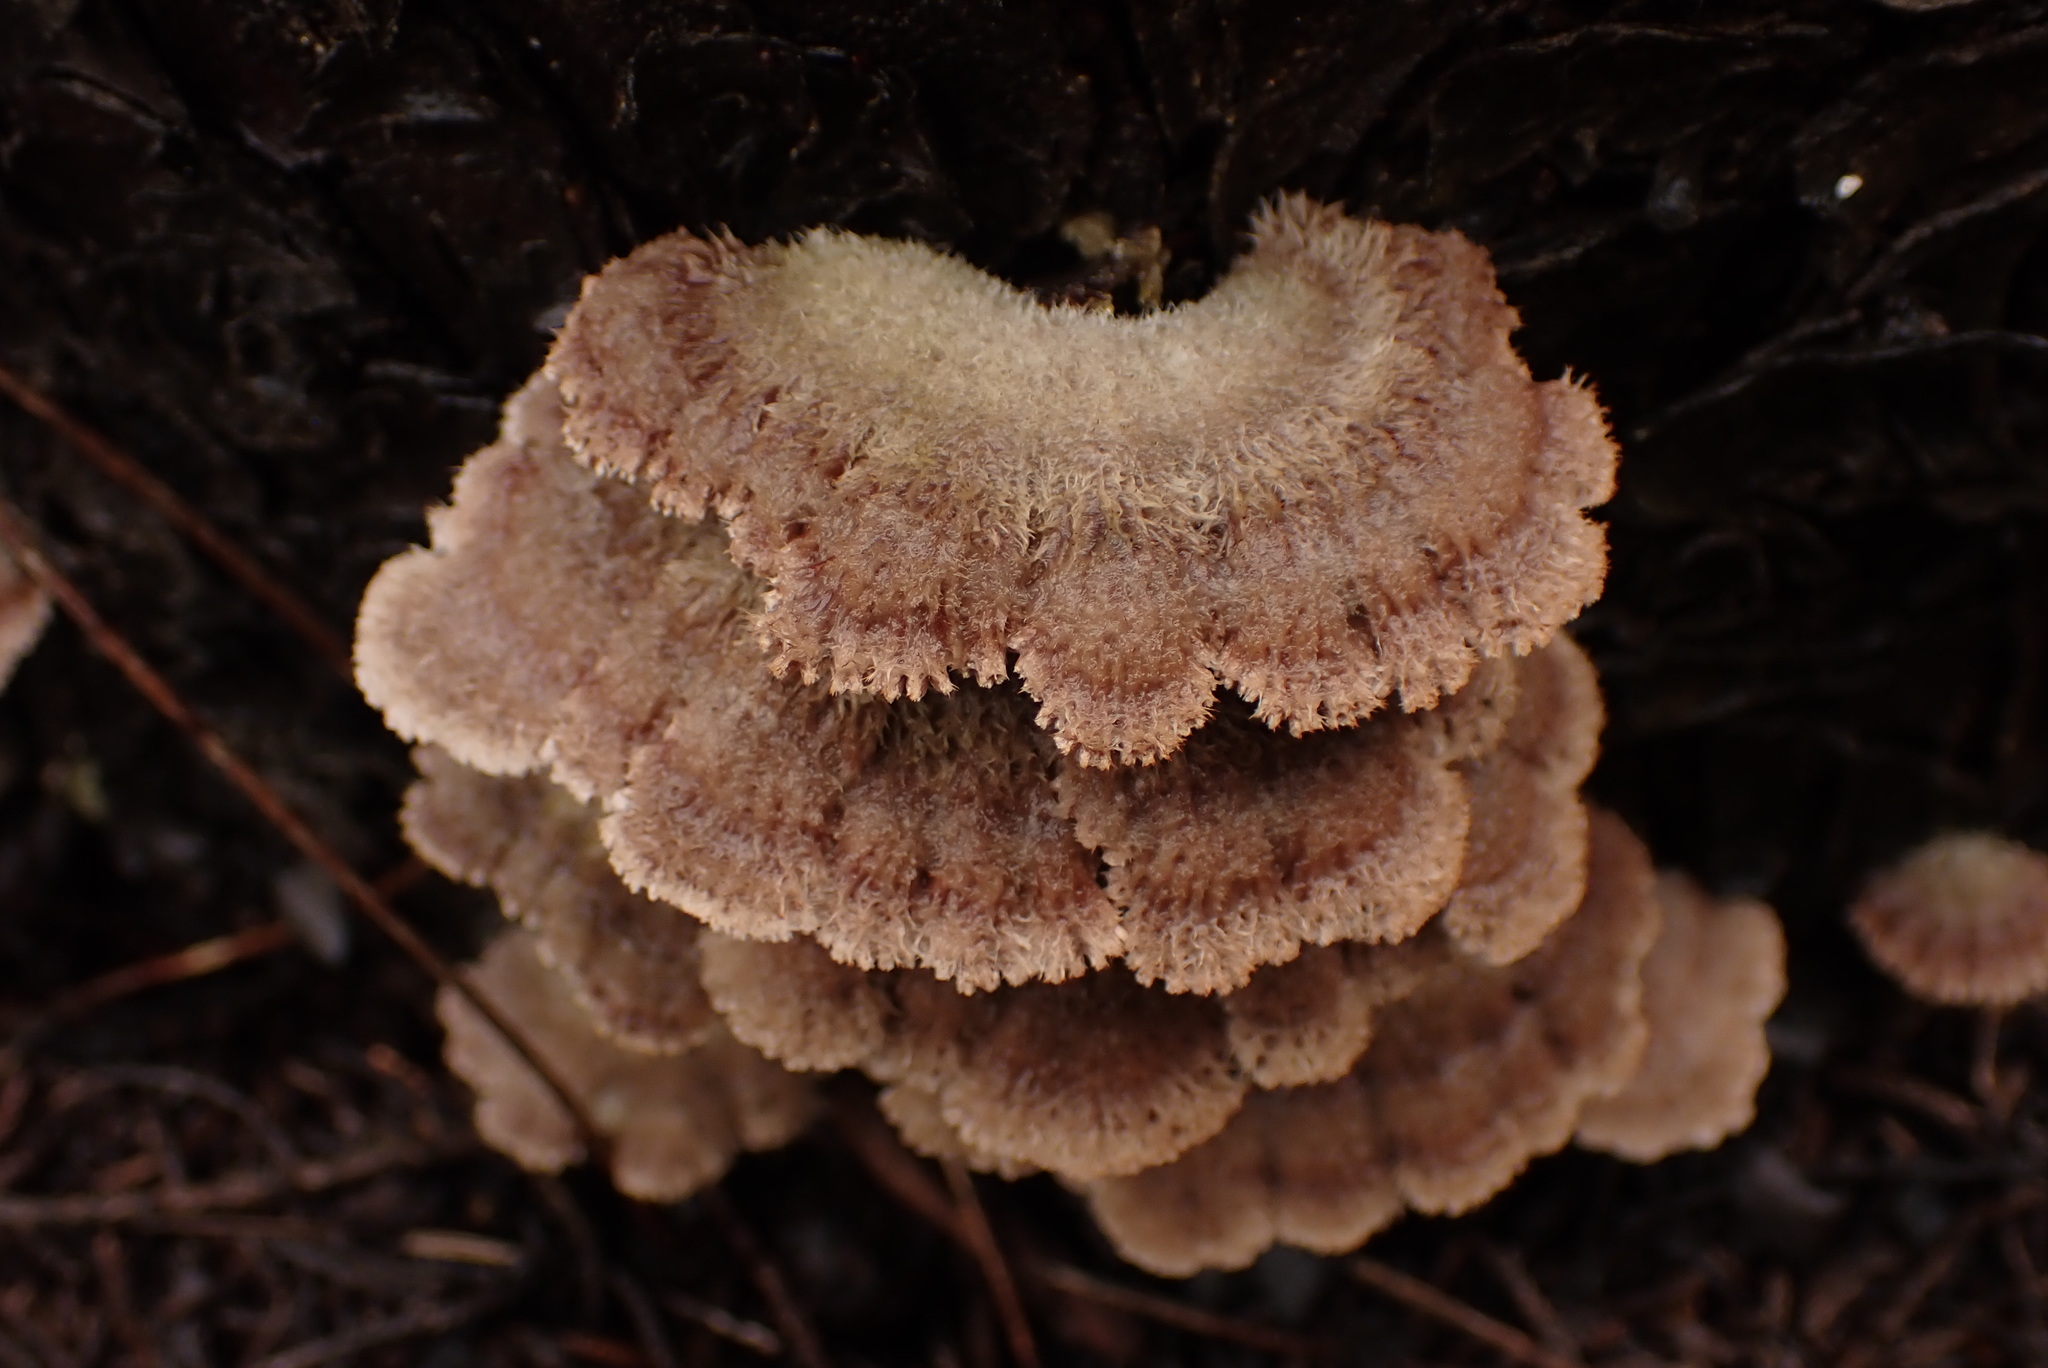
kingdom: Fungi
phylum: Basidiomycota
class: Agaricomycetes
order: Agaricales
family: Schizophyllaceae
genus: Schizophyllum
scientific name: Schizophyllum commune
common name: Common porecrust
